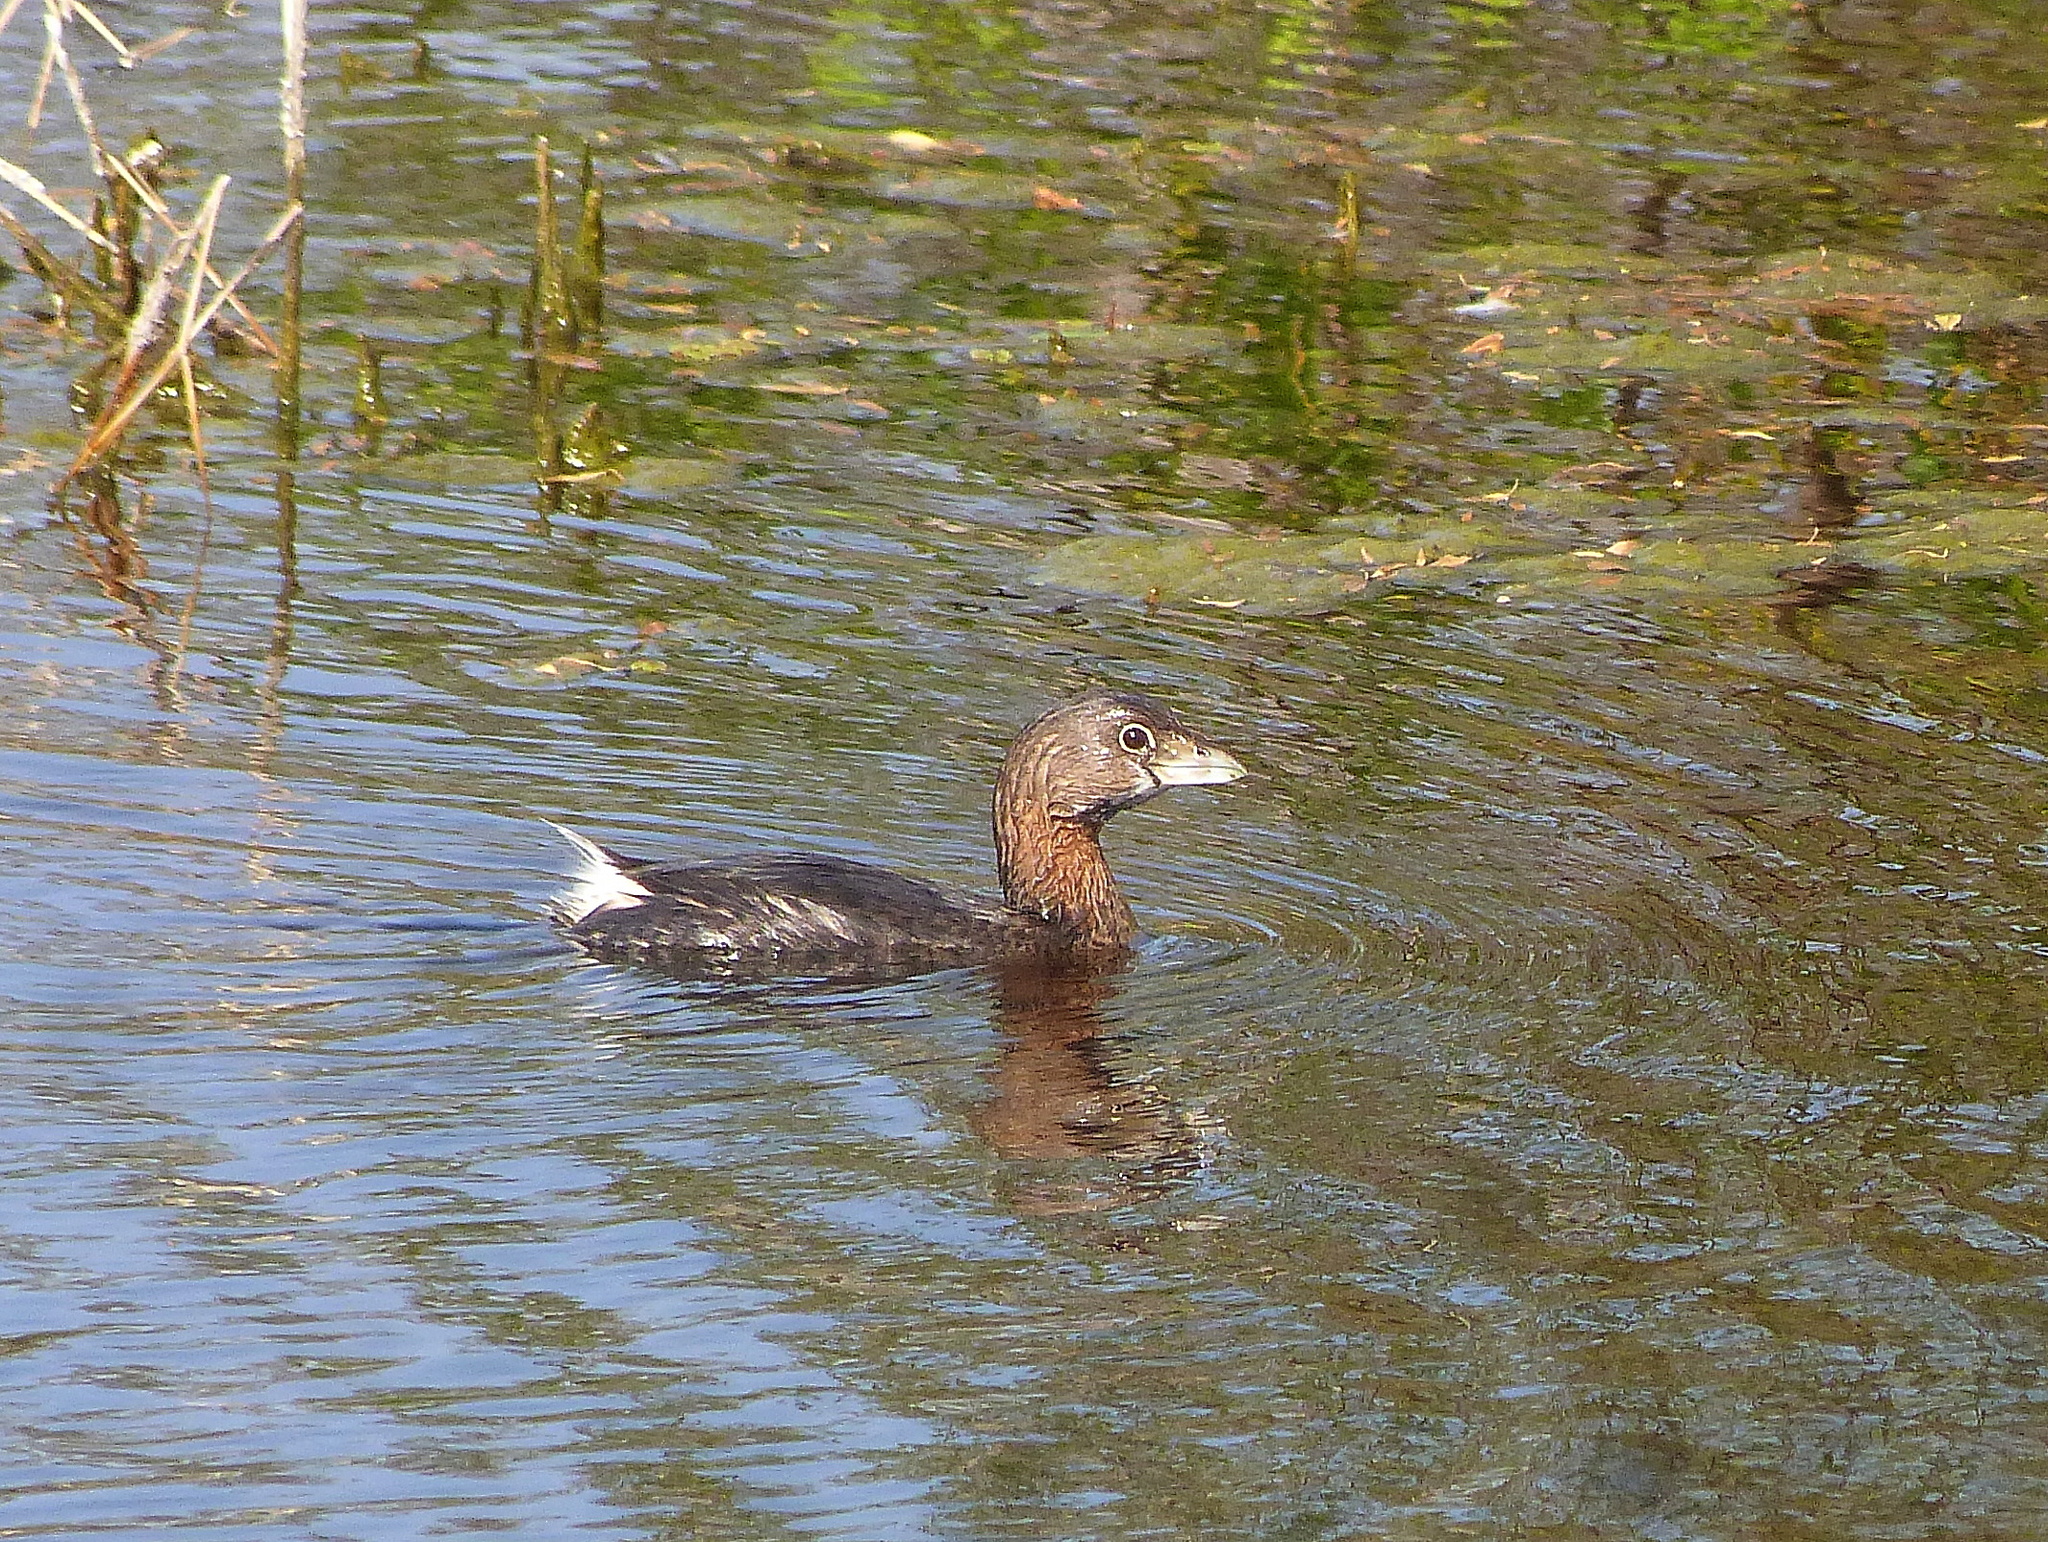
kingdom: Animalia
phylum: Chordata
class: Aves
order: Podicipediformes
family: Podicipedidae
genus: Podilymbus
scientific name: Podilymbus podiceps
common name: Pied-billed grebe
